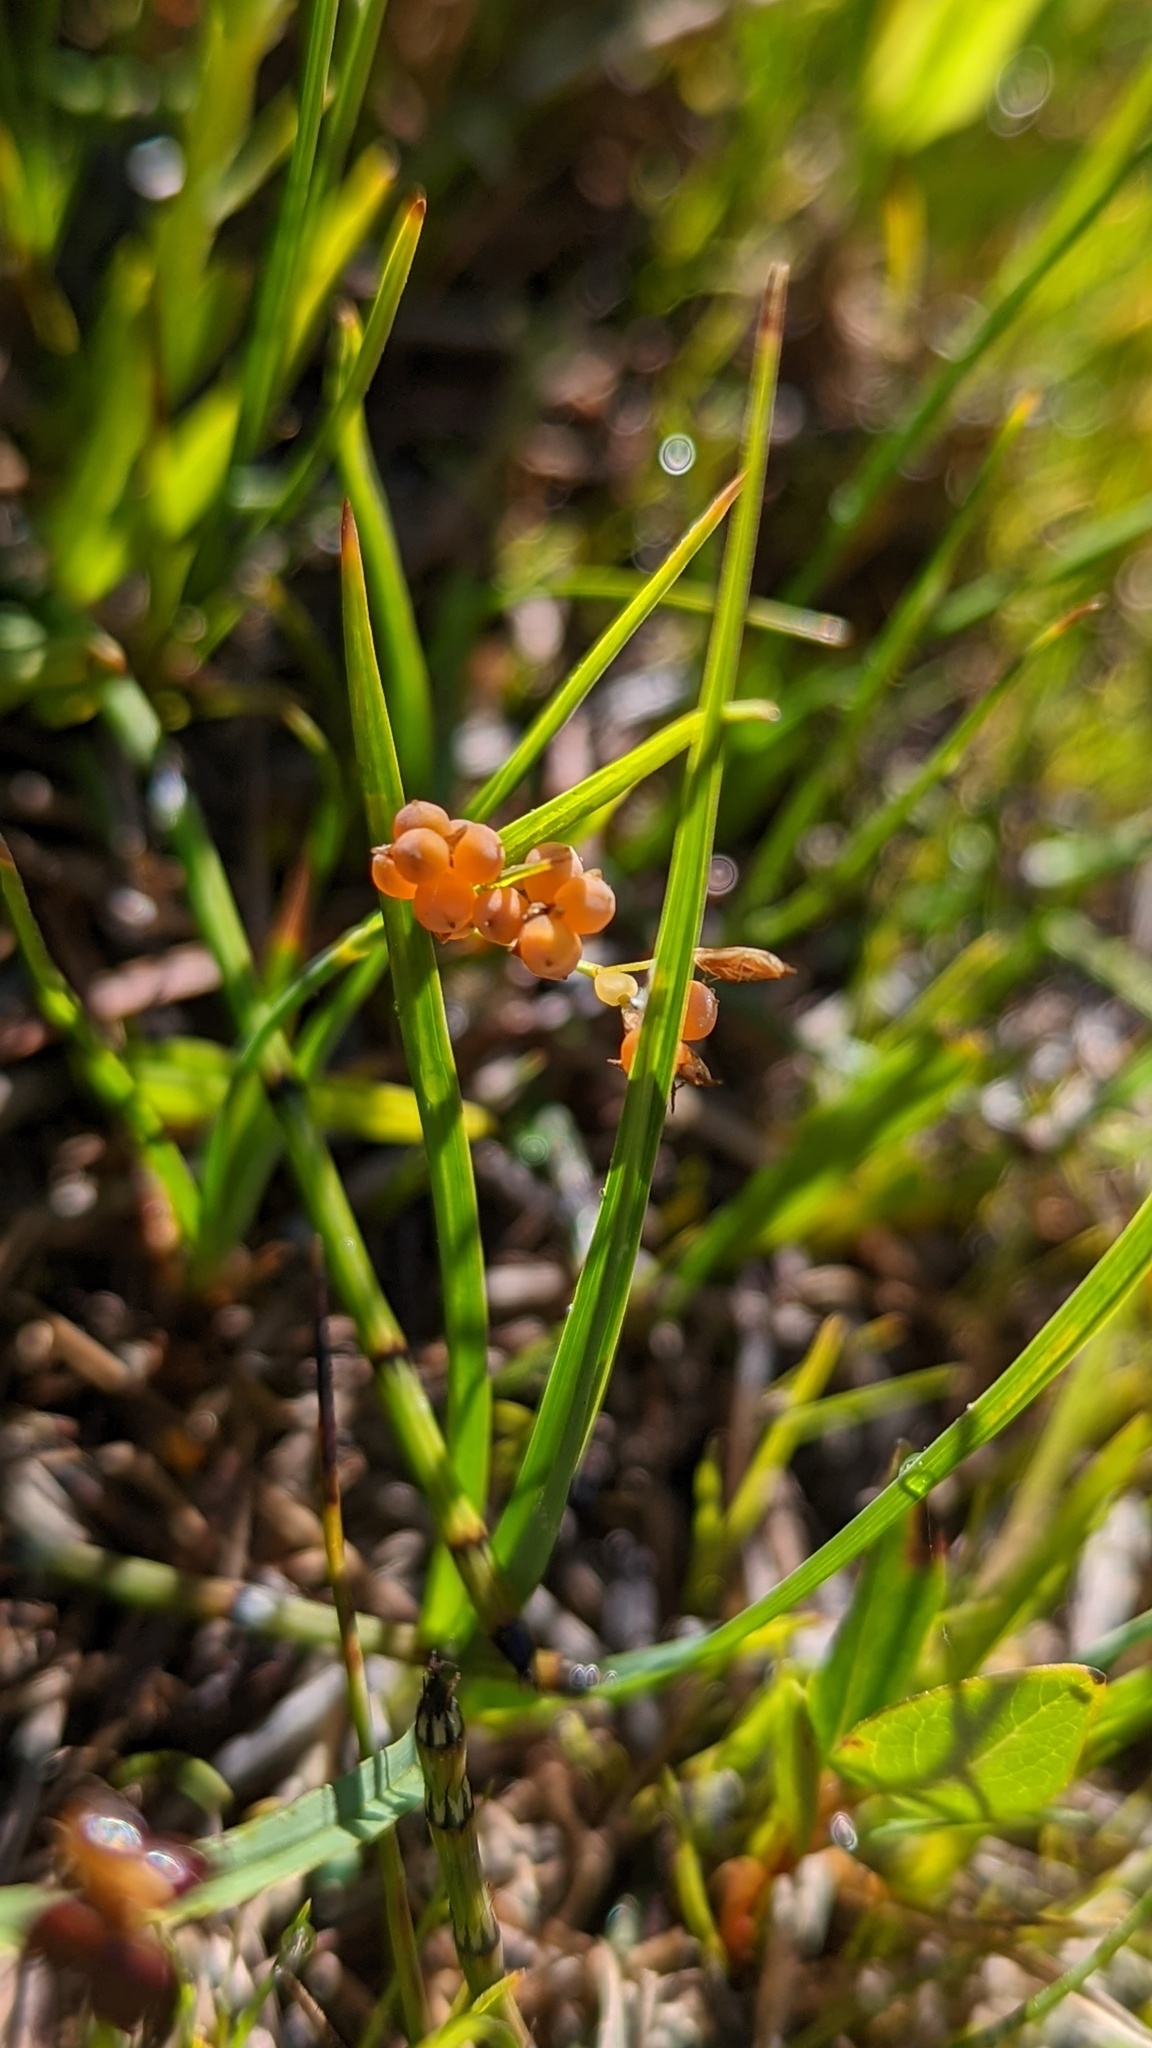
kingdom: Plantae
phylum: Tracheophyta
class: Liliopsida
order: Poales
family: Cyperaceae
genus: Carex
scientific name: Carex aurea
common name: Golden sedge
